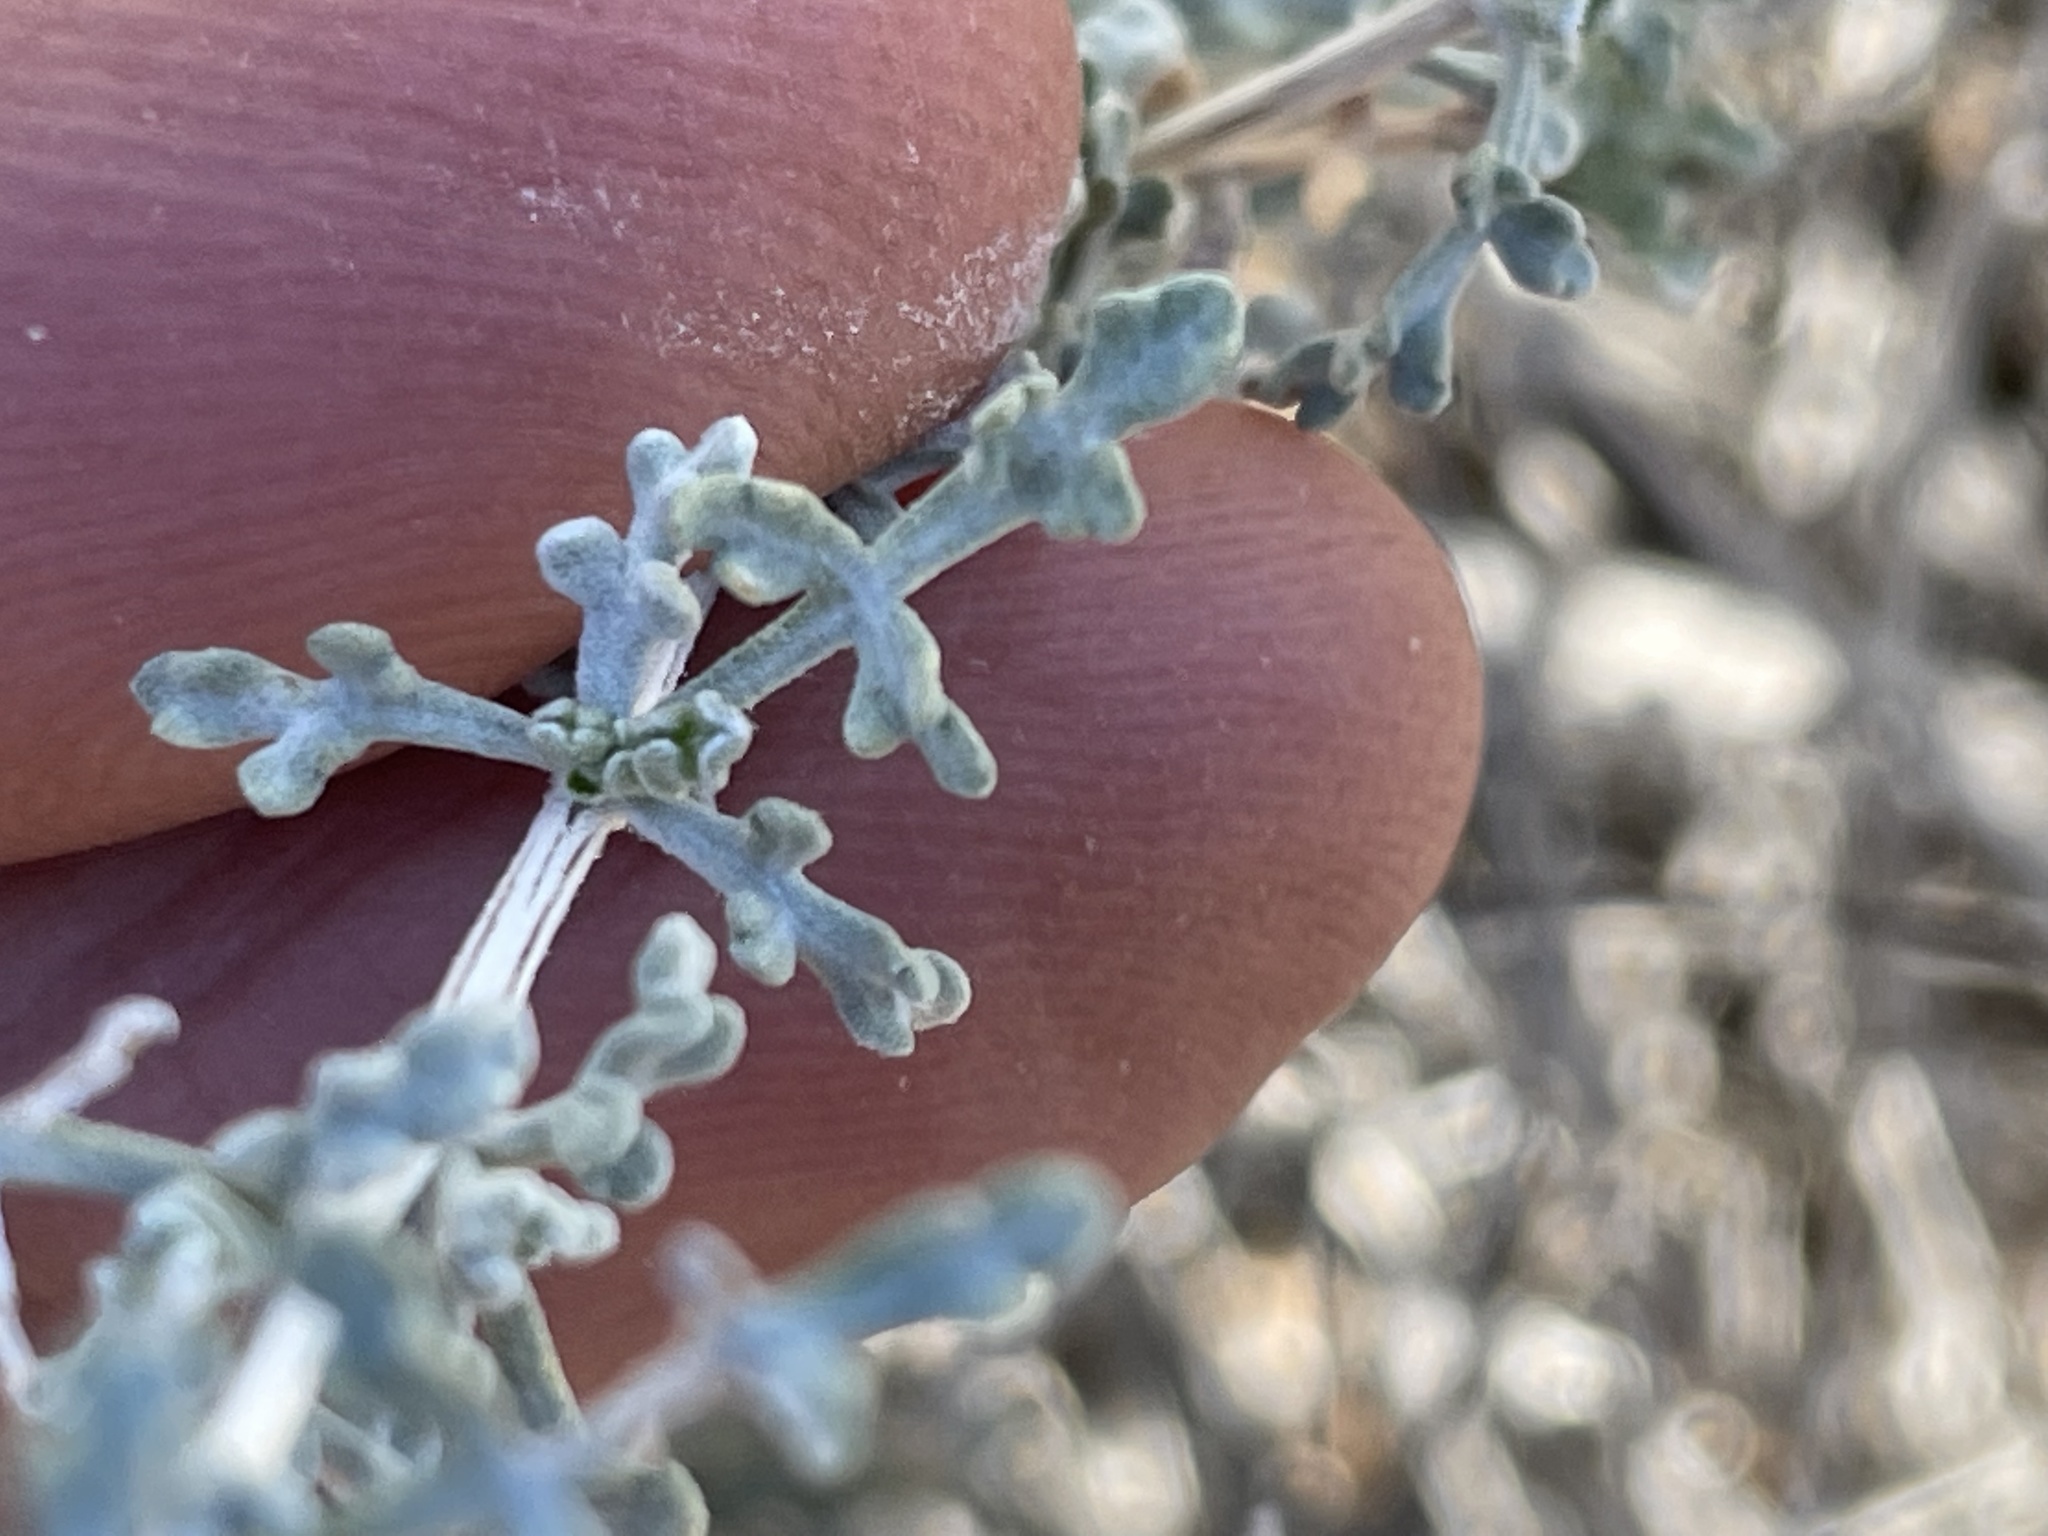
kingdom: Plantae
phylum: Tracheophyta
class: Magnoliopsida
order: Asterales
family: Asteraceae
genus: Ambrosia
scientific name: Ambrosia dumosa
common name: Bur-sage
